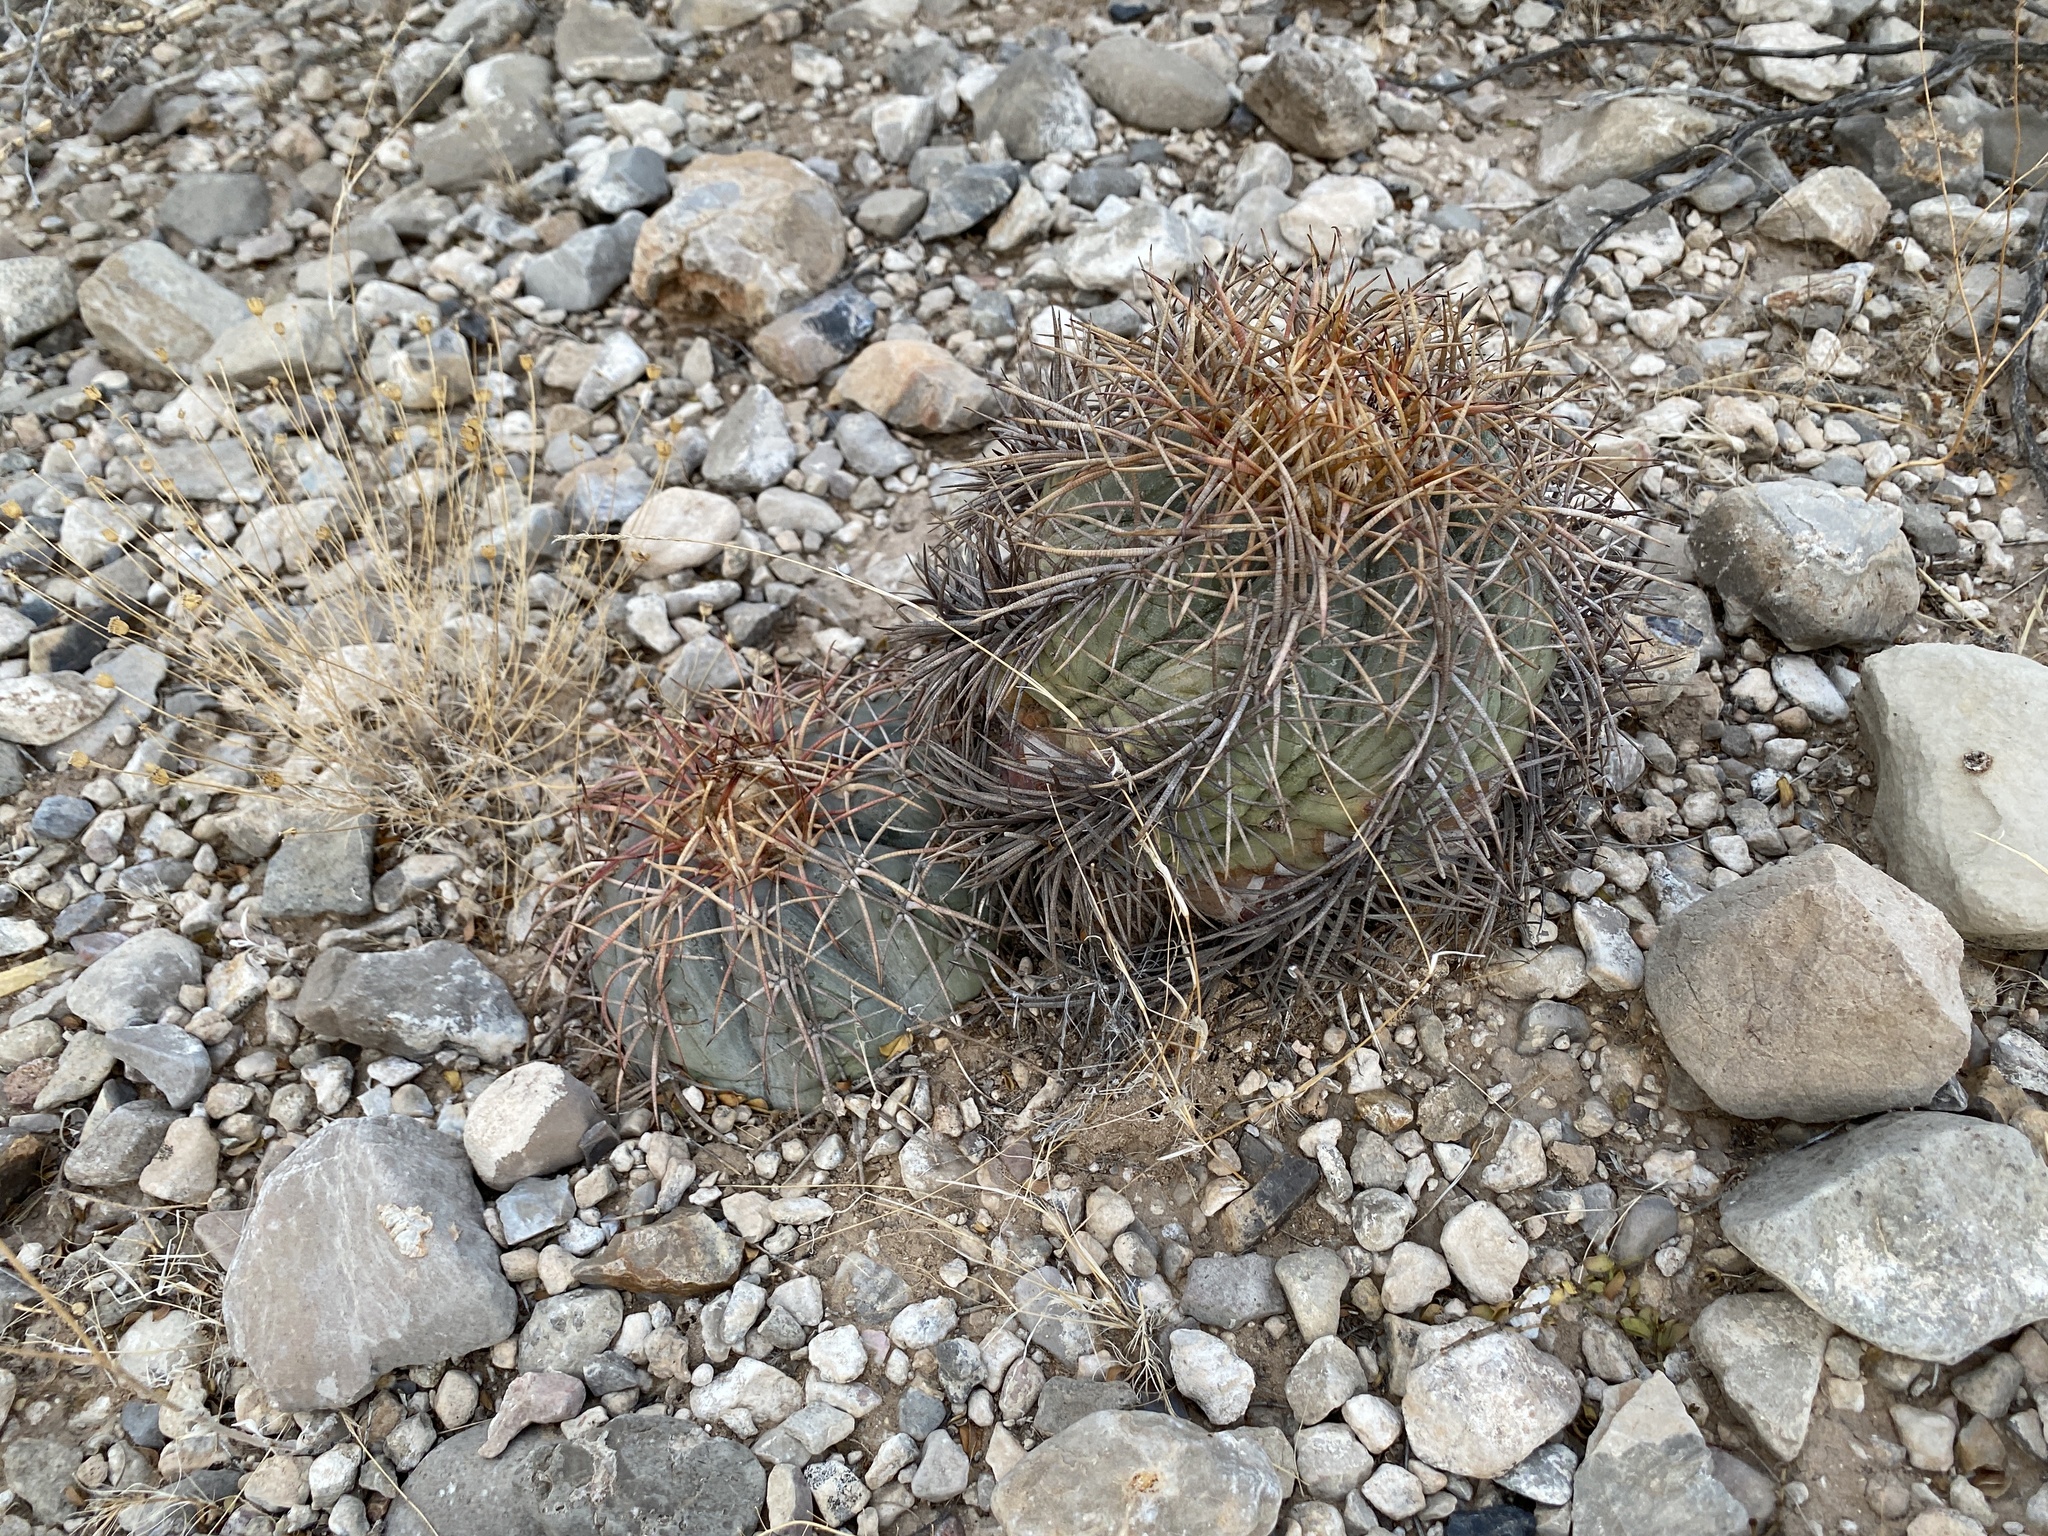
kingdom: Plantae
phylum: Tracheophyta
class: Magnoliopsida
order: Caryophyllales
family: Cactaceae
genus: Echinocactus
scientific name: Echinocactus horizonthalonius
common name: Devilshead
